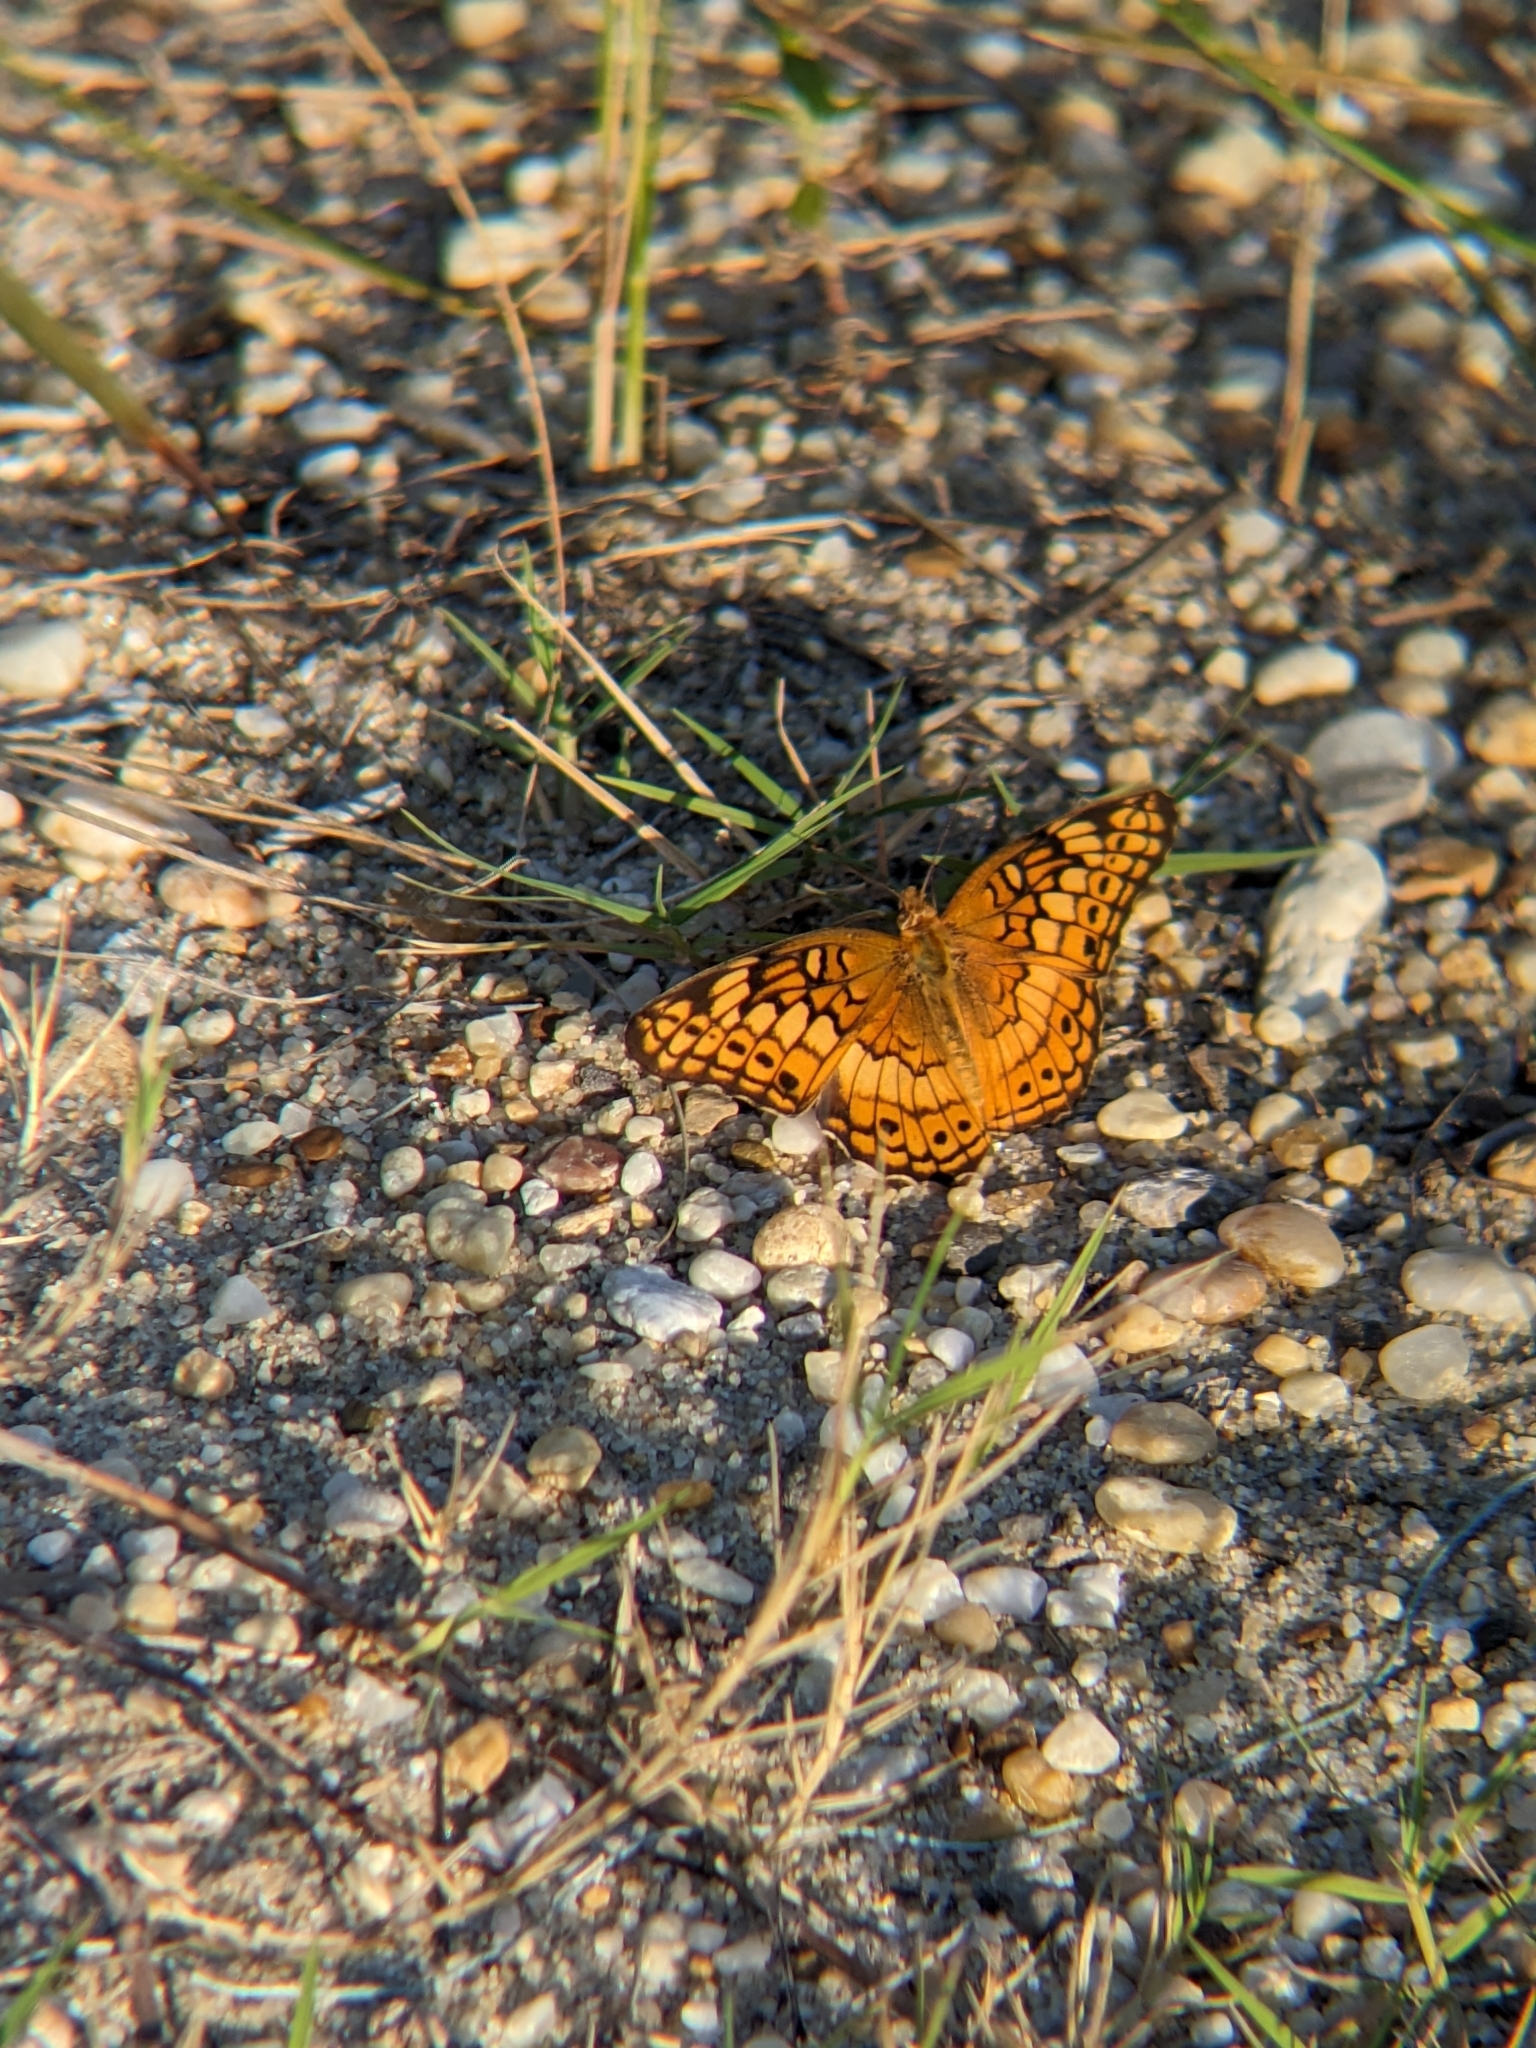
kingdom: Animalia
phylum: Arthropoda
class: Insecta
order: Lepidoptera
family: Nymphalidae
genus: Euptoieta
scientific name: Euptoieta claudia
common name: Variegated fritillary
